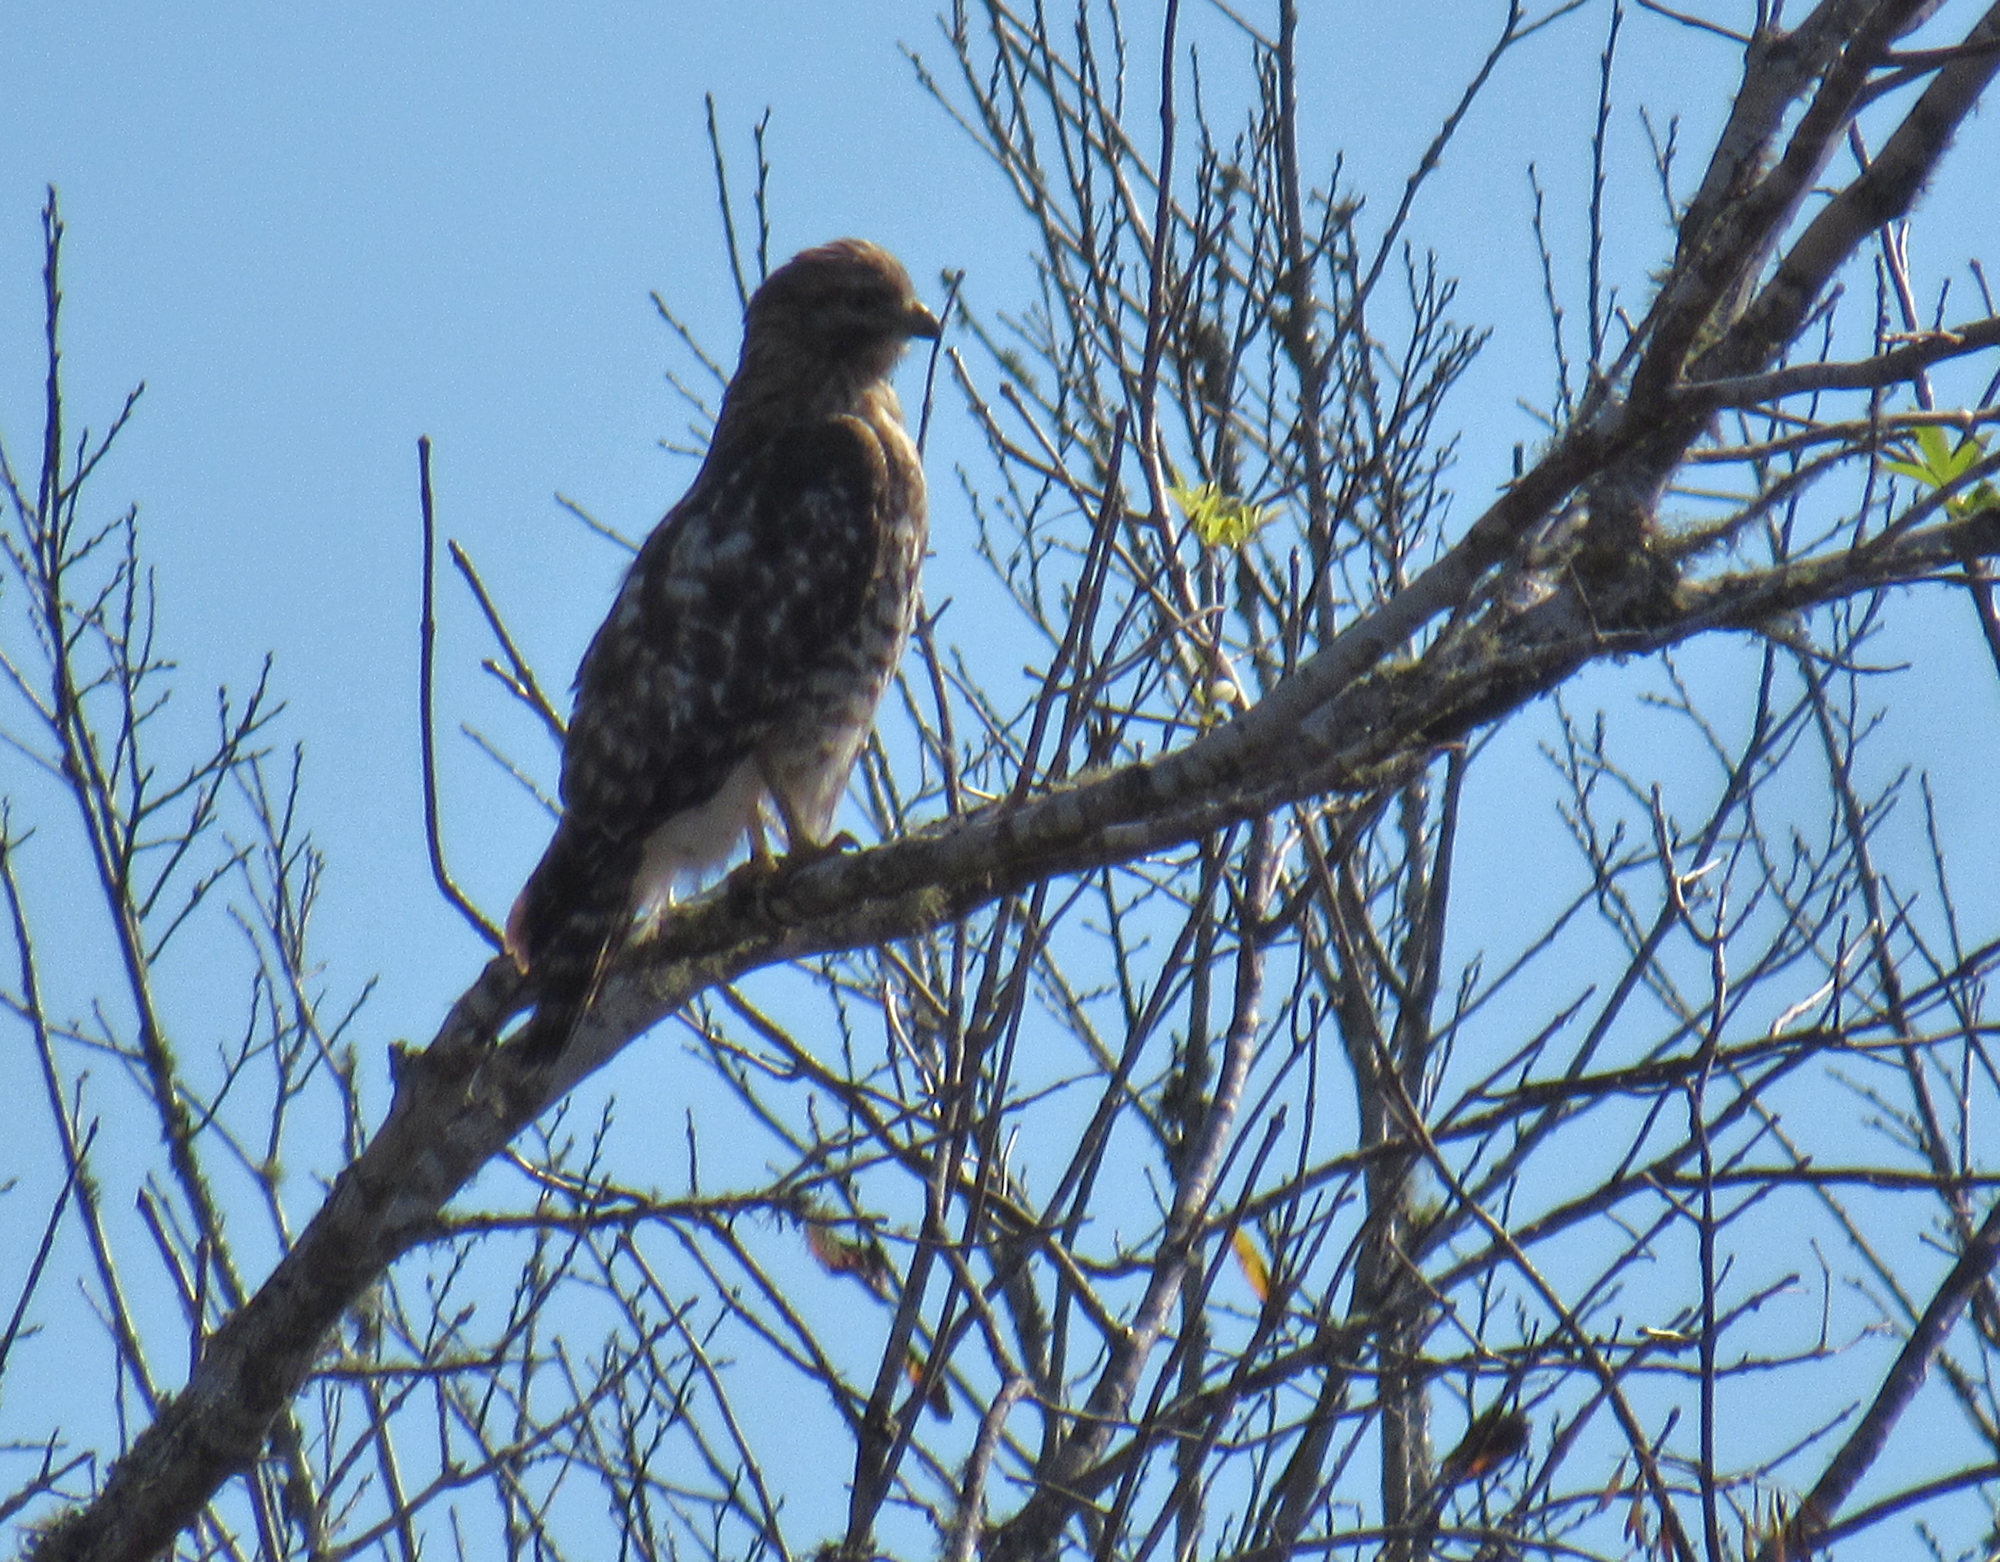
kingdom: Animalia
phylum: Chordata
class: Aves
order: Accipitriformes
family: Accipitridae
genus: Buteo
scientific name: Buteo lineatus
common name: Red-shouldered hawk
